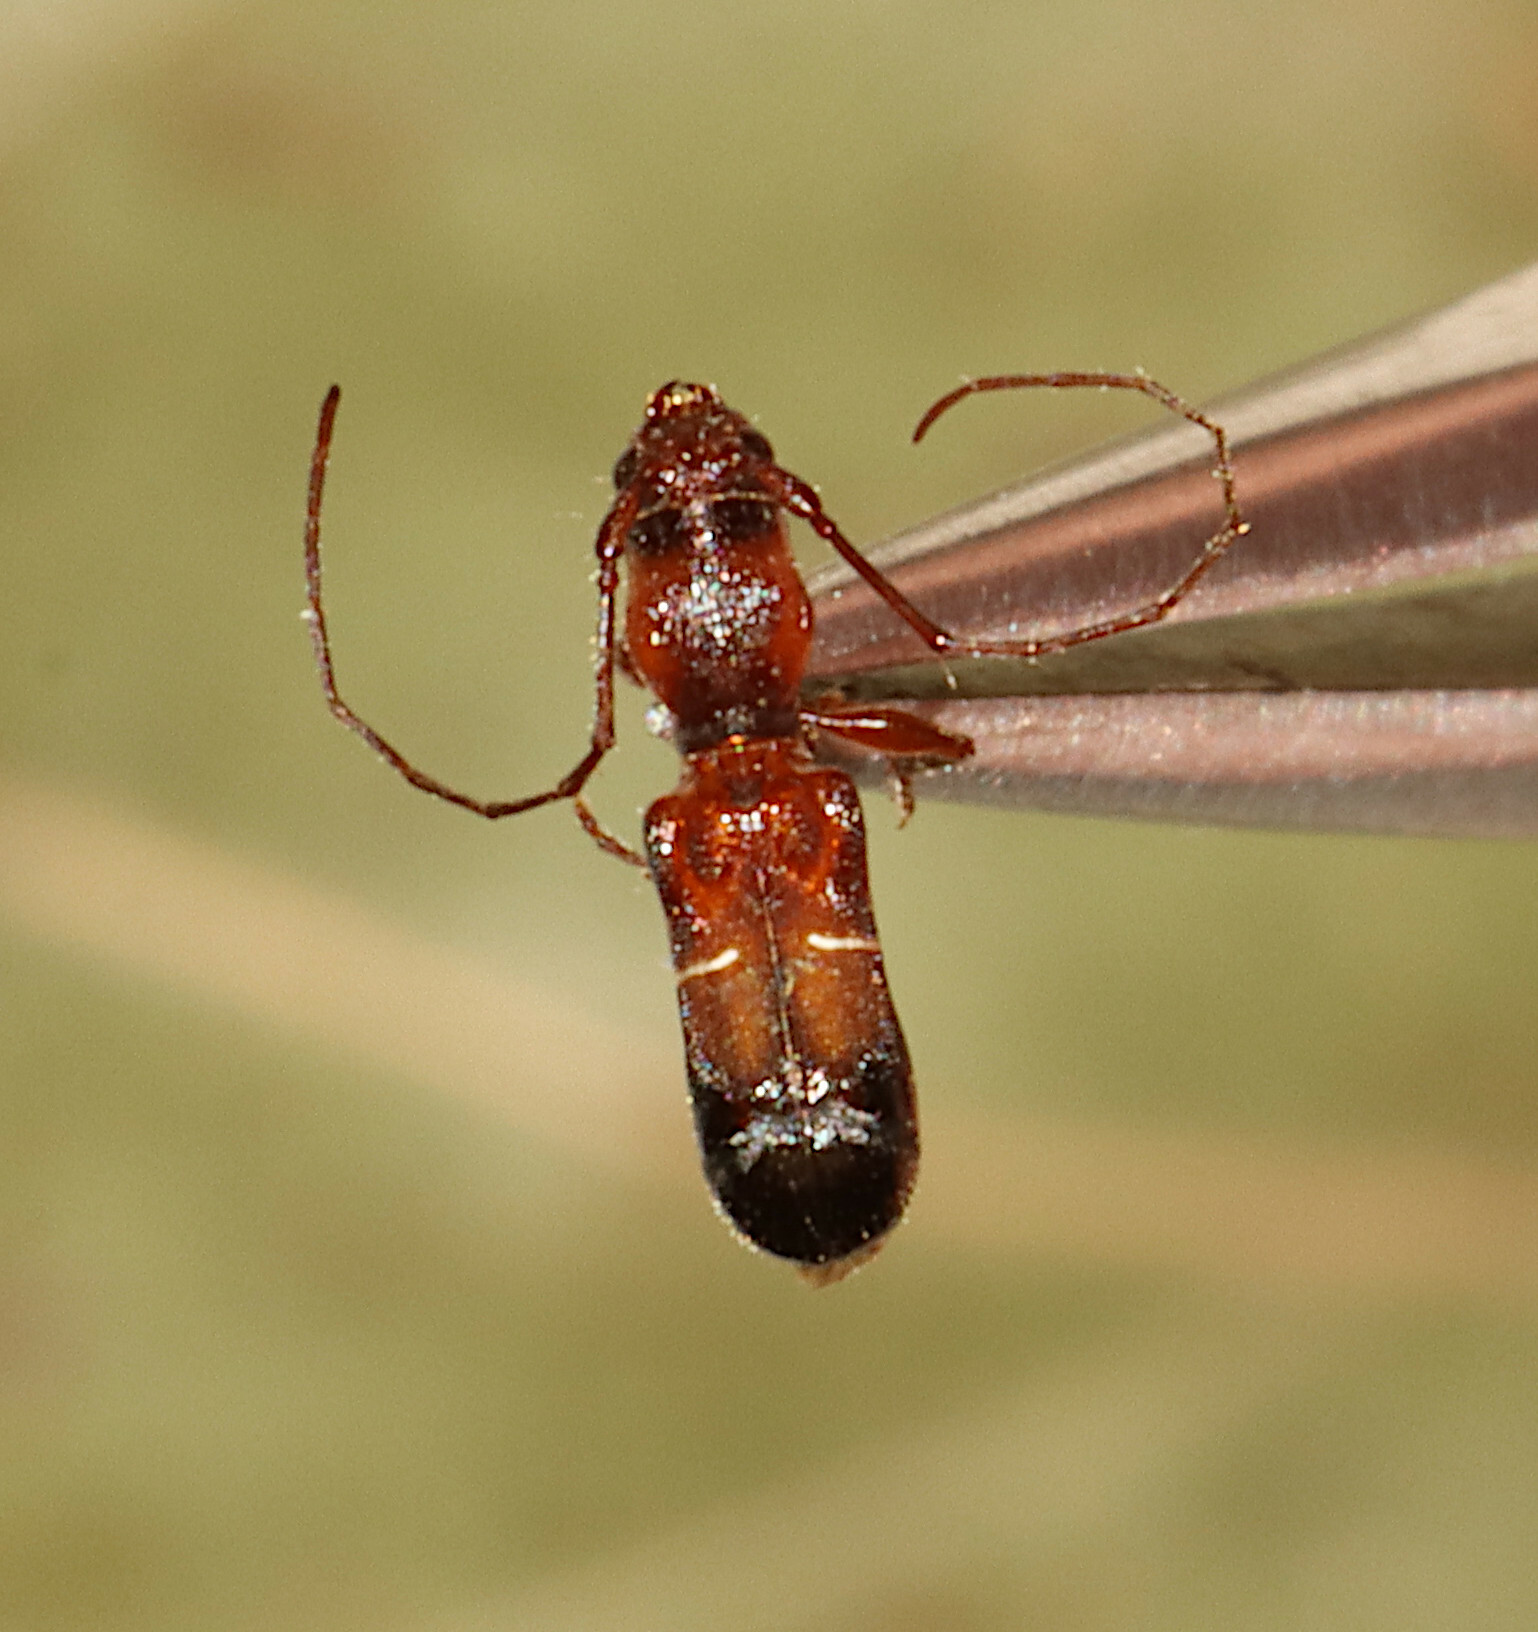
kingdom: Animalia
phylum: Arthropoda
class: Insecta
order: Coleoptera
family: Cerambycidae
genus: Euderces
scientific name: Euderces pini
